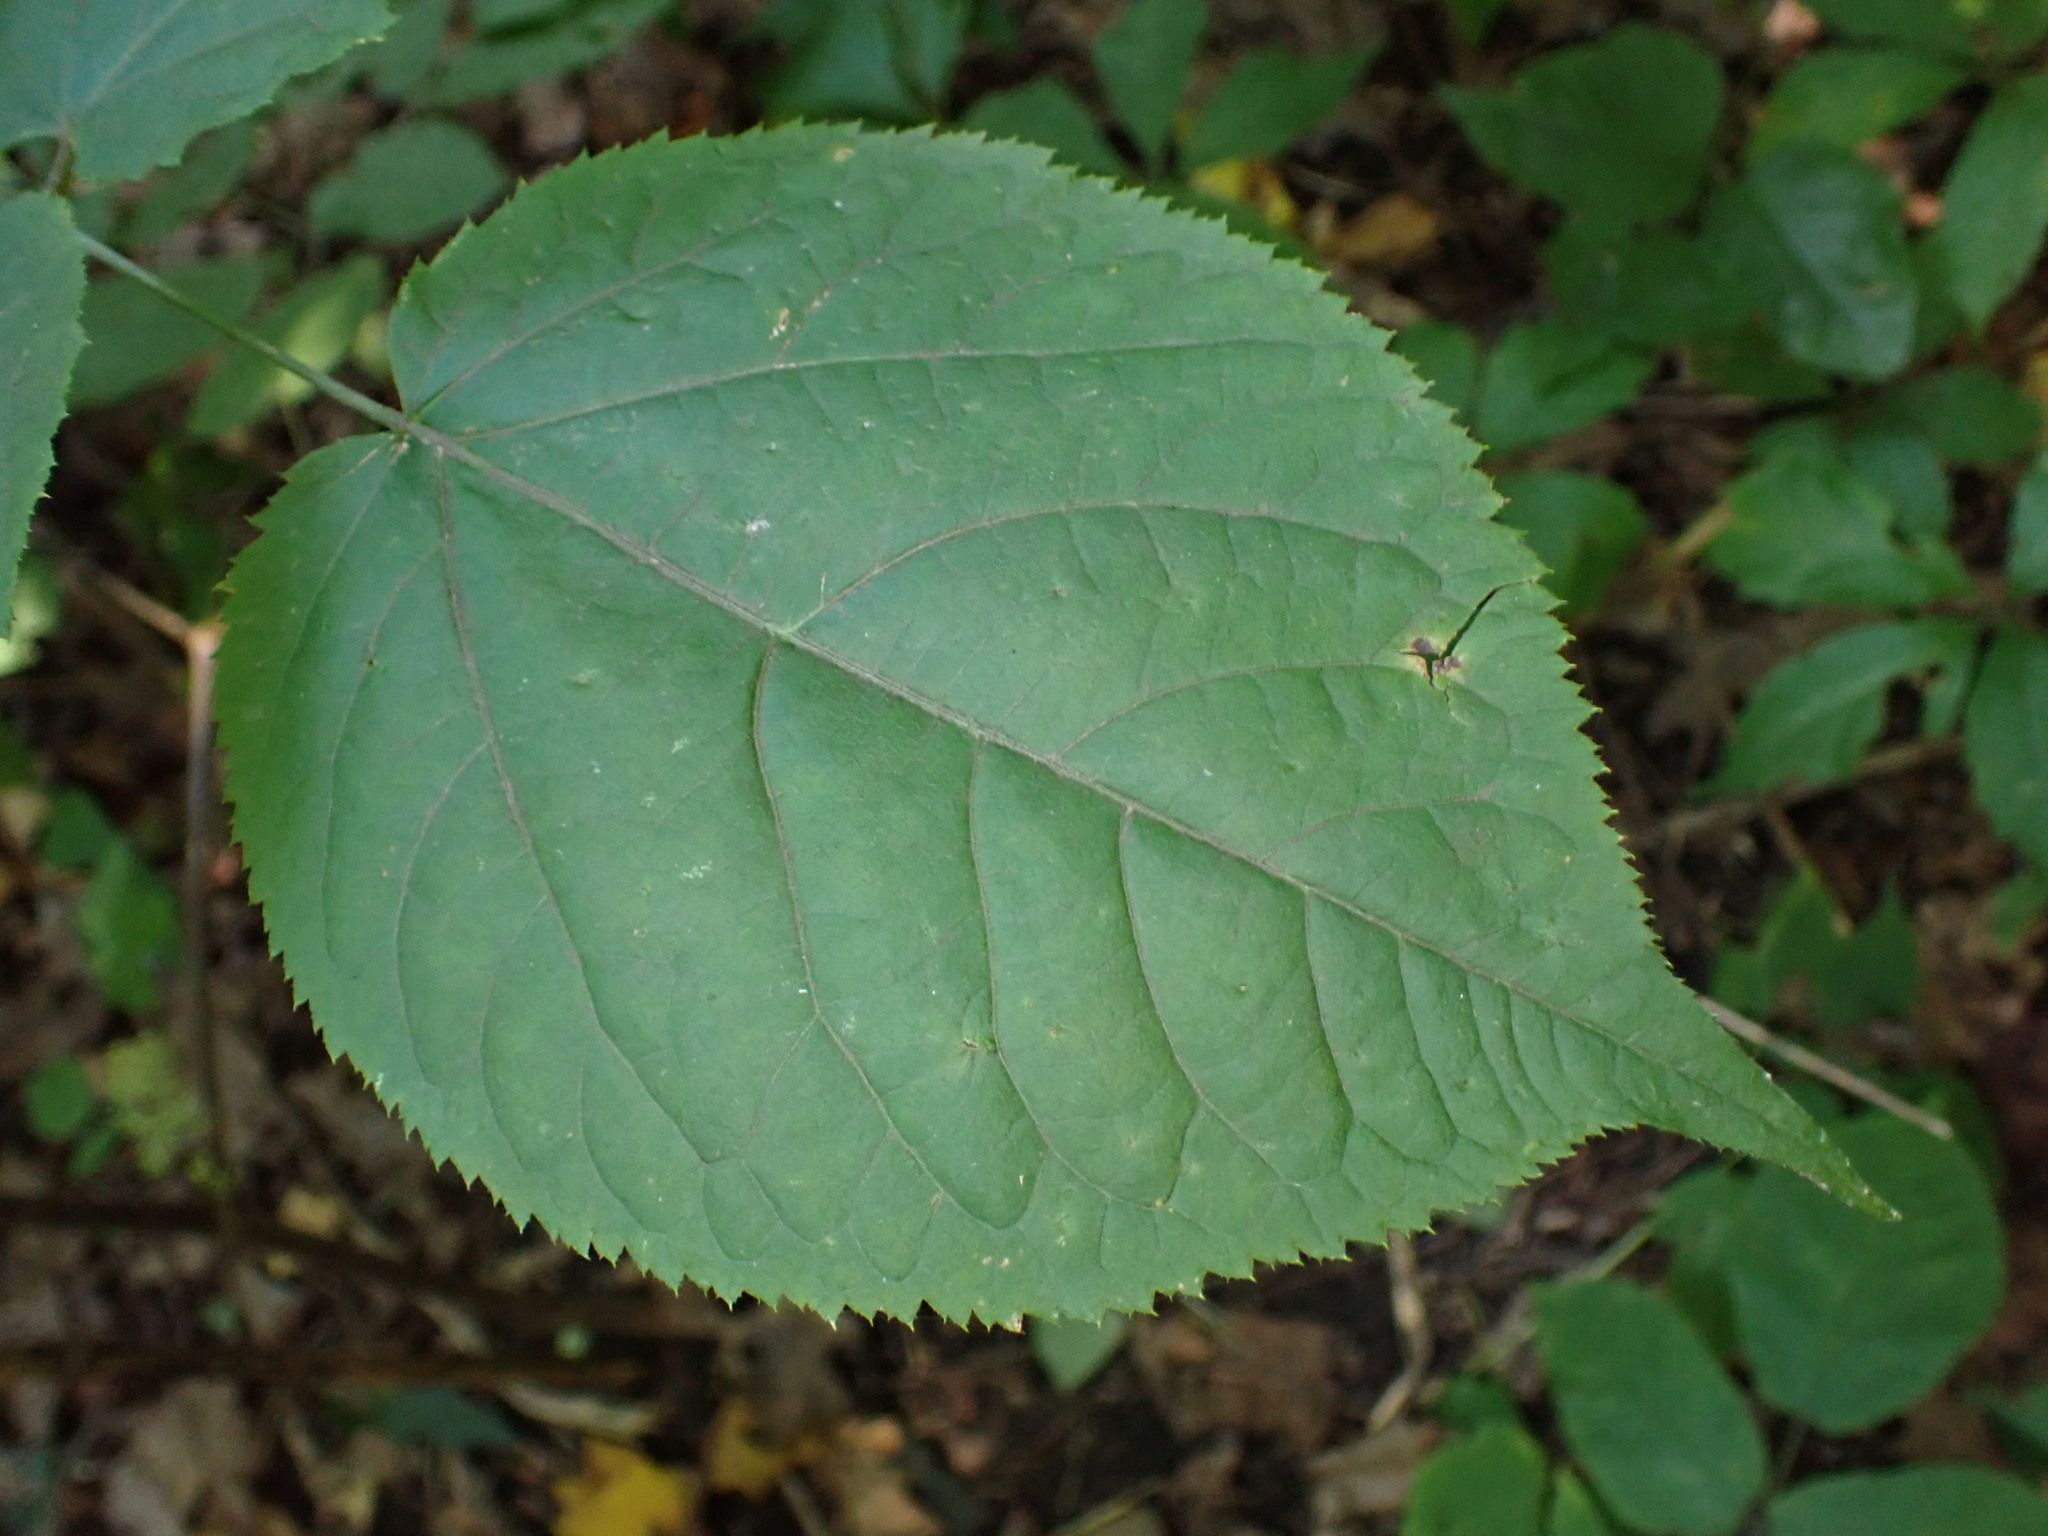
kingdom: Plantae
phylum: Tracheophyta
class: Magnoliopsida
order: Apiales
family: Araliaceae
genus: Aralia
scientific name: Aralia racemosa
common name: American-spikenard
